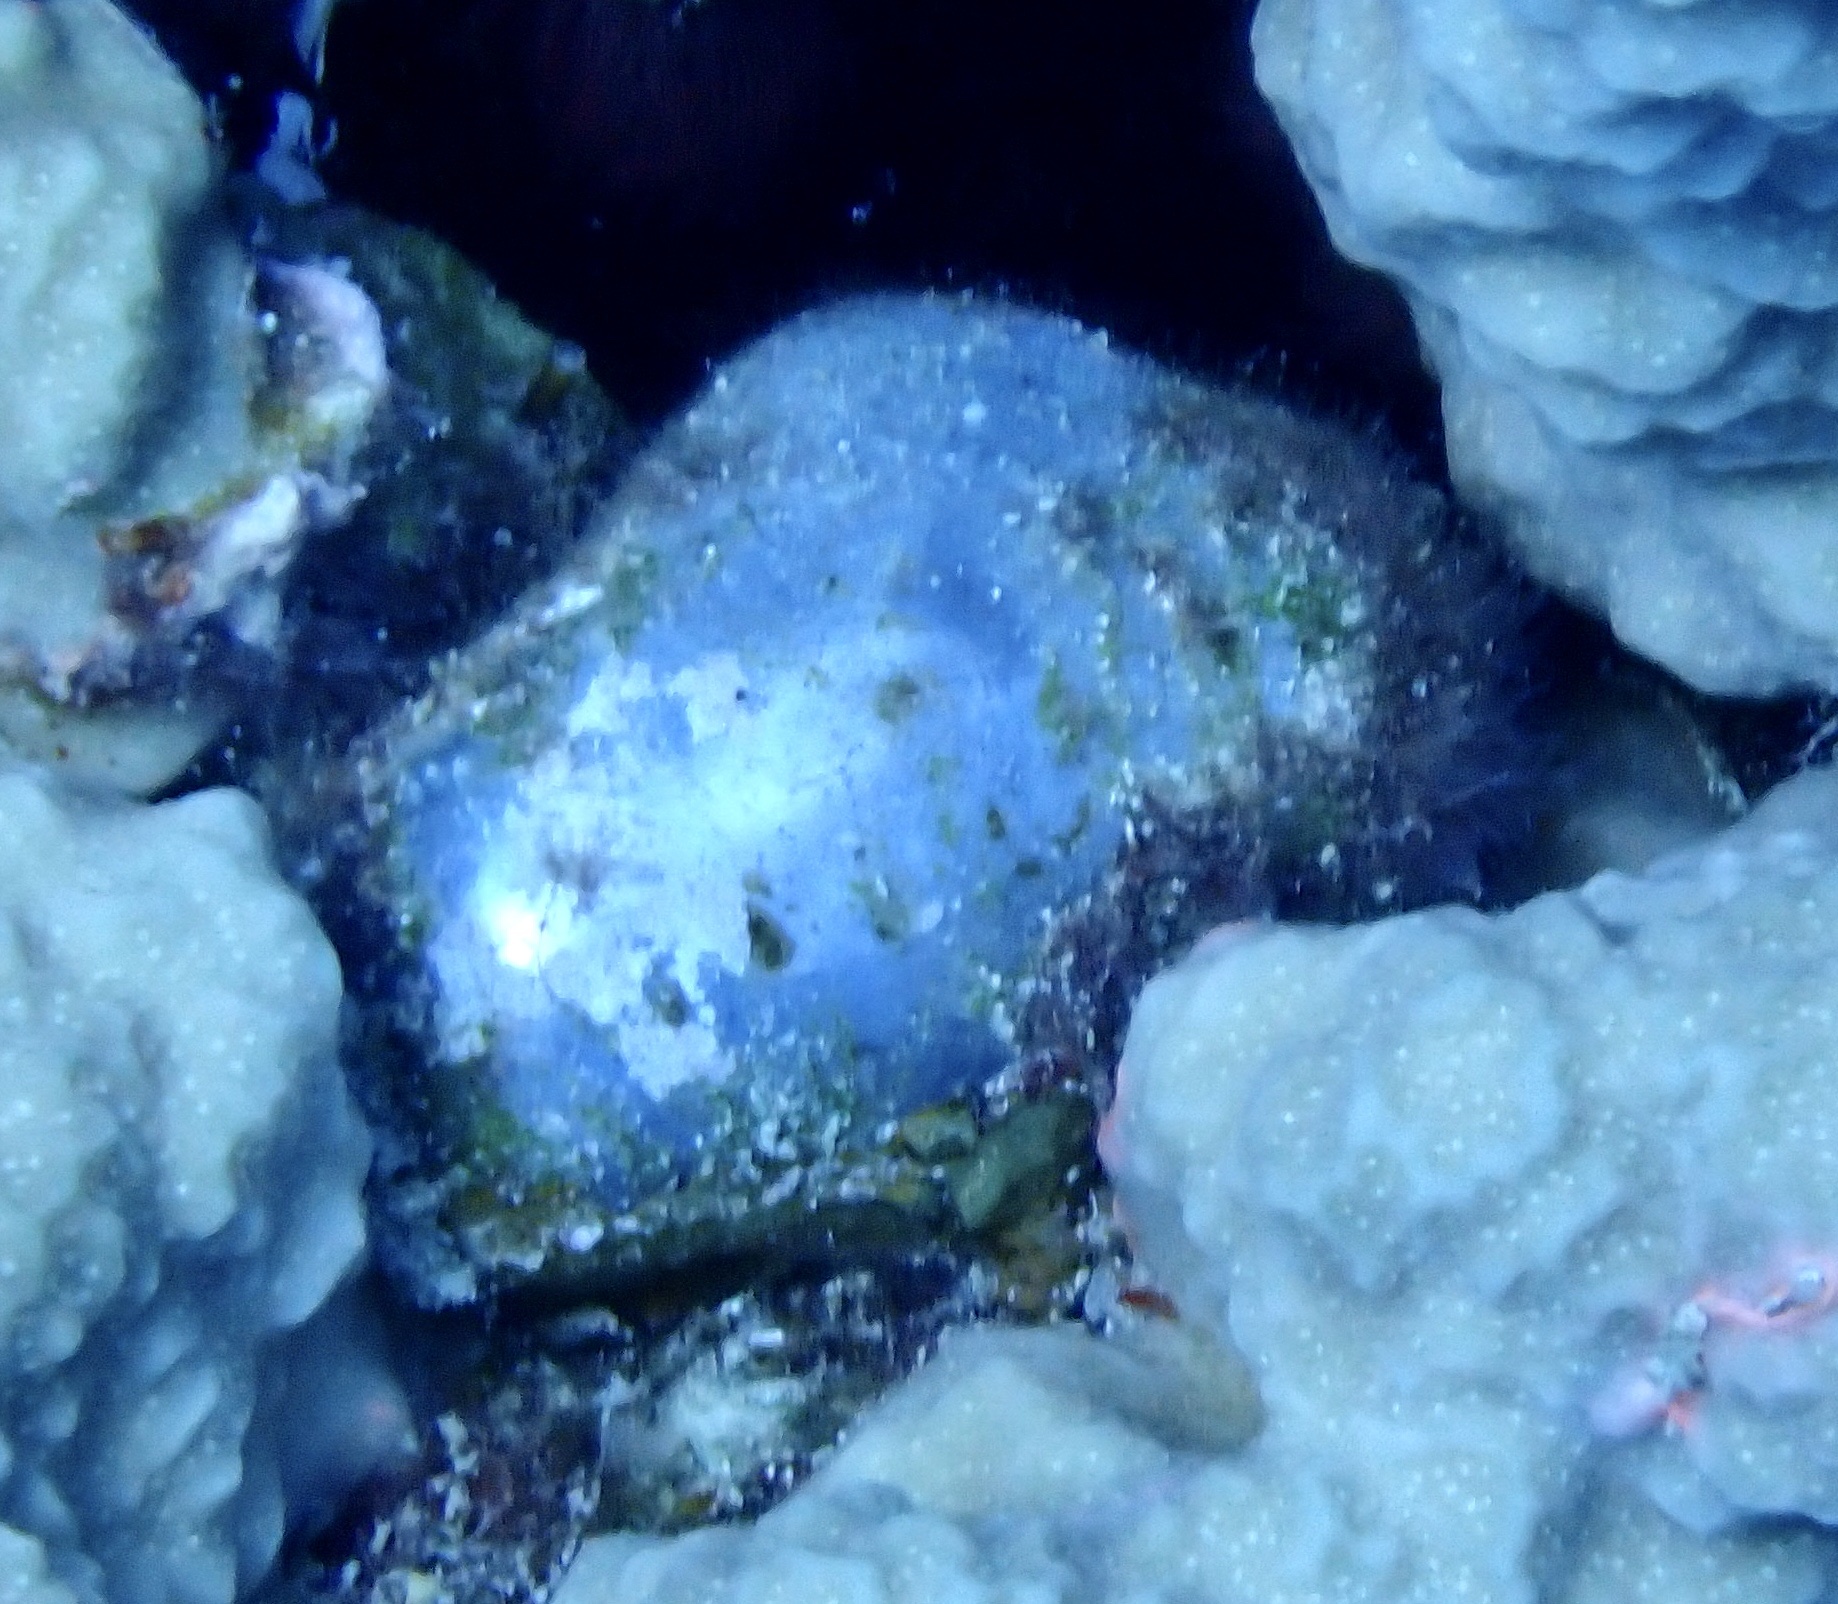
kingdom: Plantae
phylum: Chlorophyta
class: Ulvophyceae
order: Siphonocladales
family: Valoniaceae
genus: Valonia
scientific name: Valonia ventricosa
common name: Sea pearl
